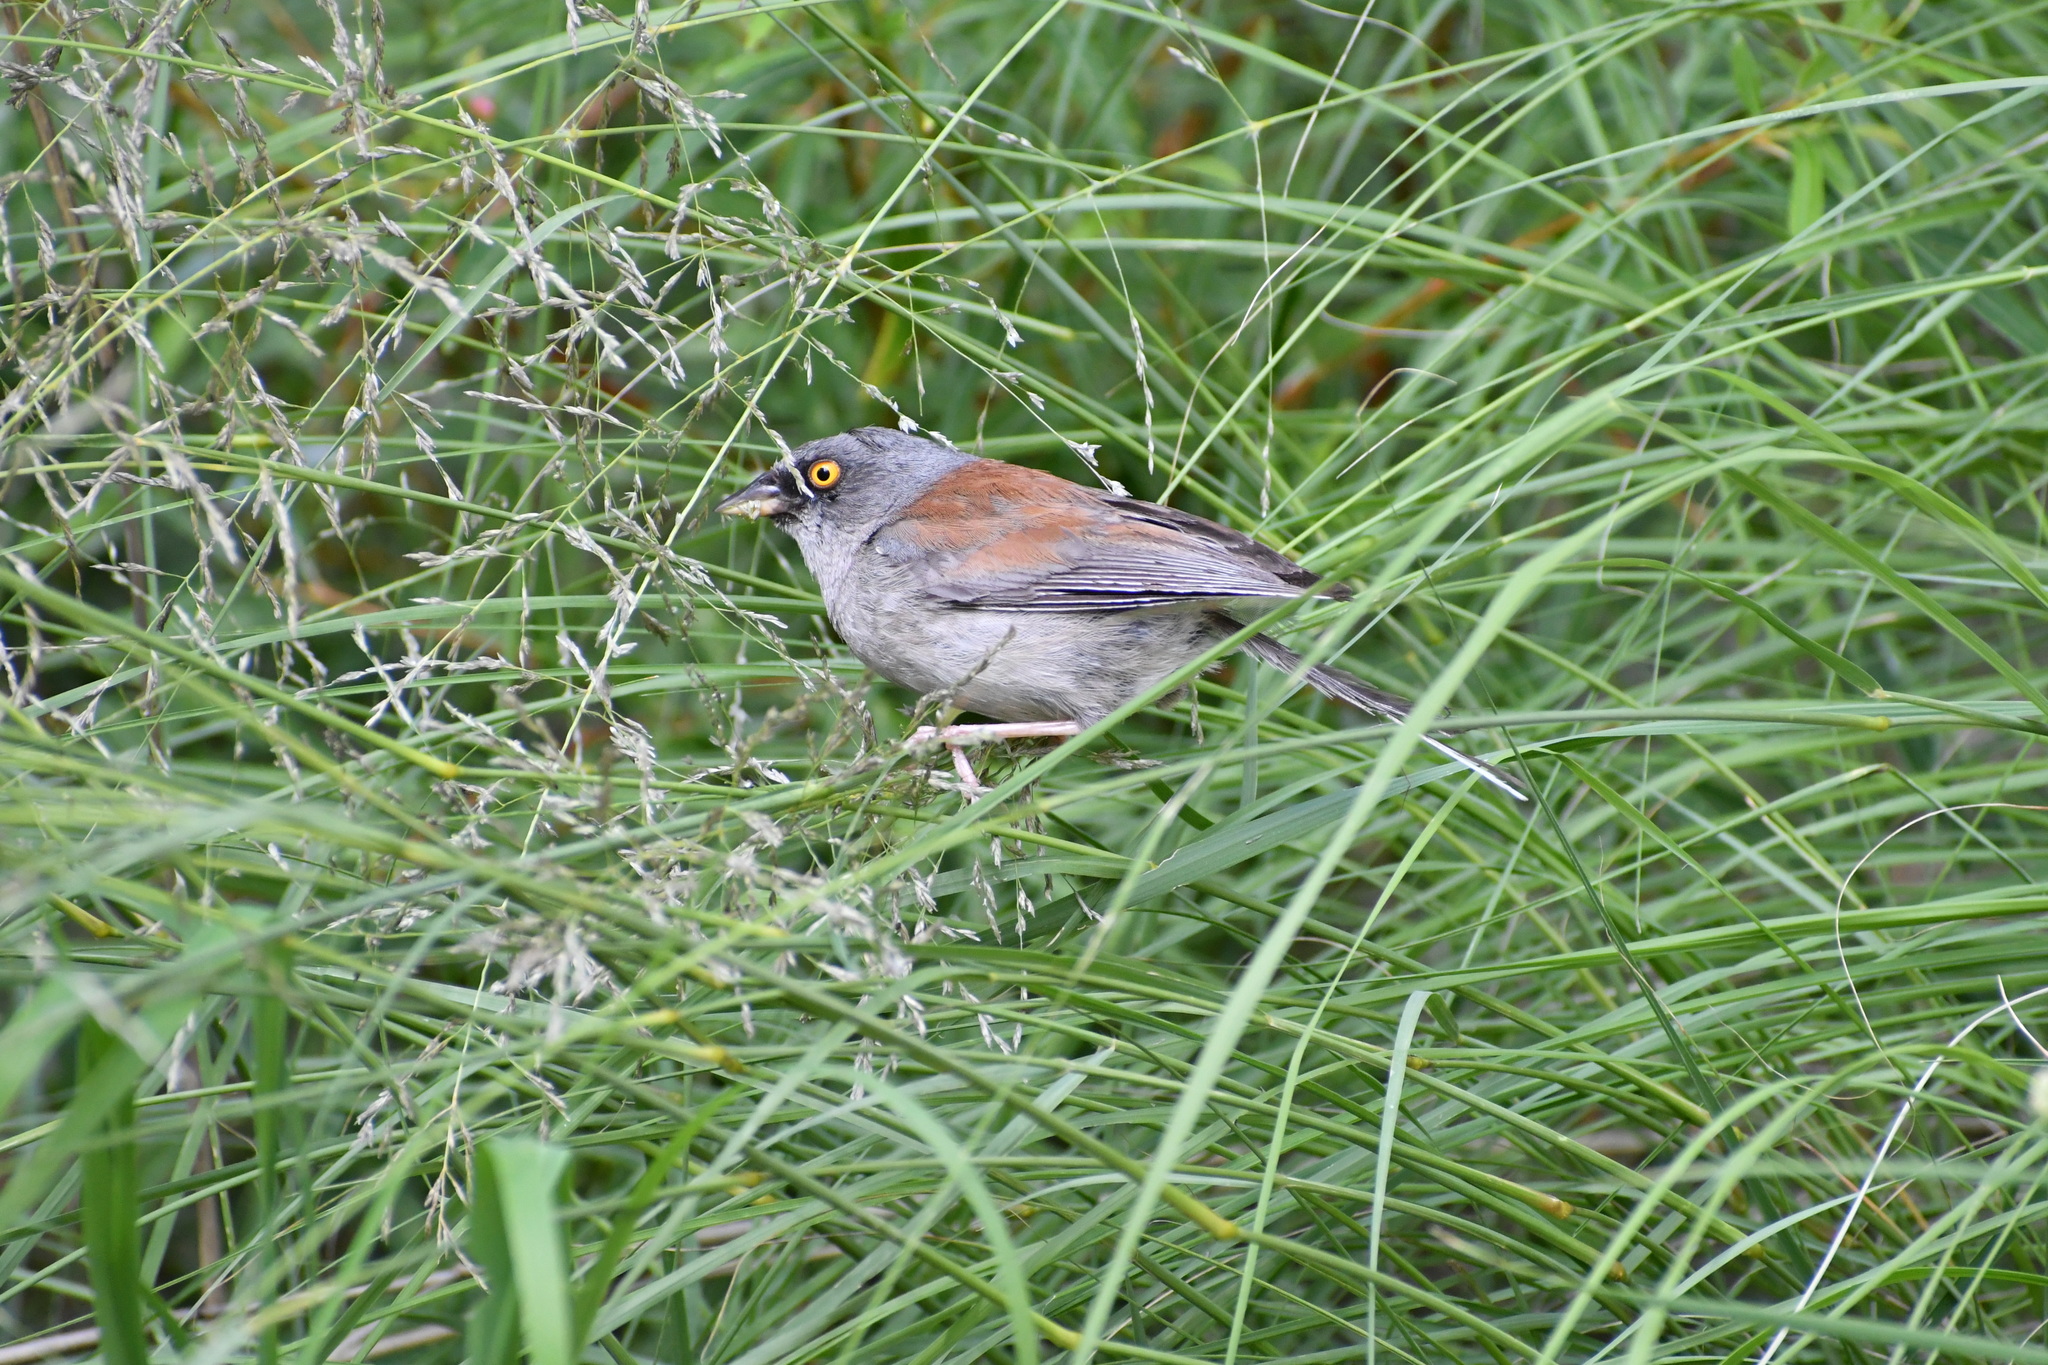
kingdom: Animalia
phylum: Chordata
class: Aves
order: Passeriformes
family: Passerellidae
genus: Junco
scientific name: Junco phaeonotus
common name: Yellow-eyed junco
